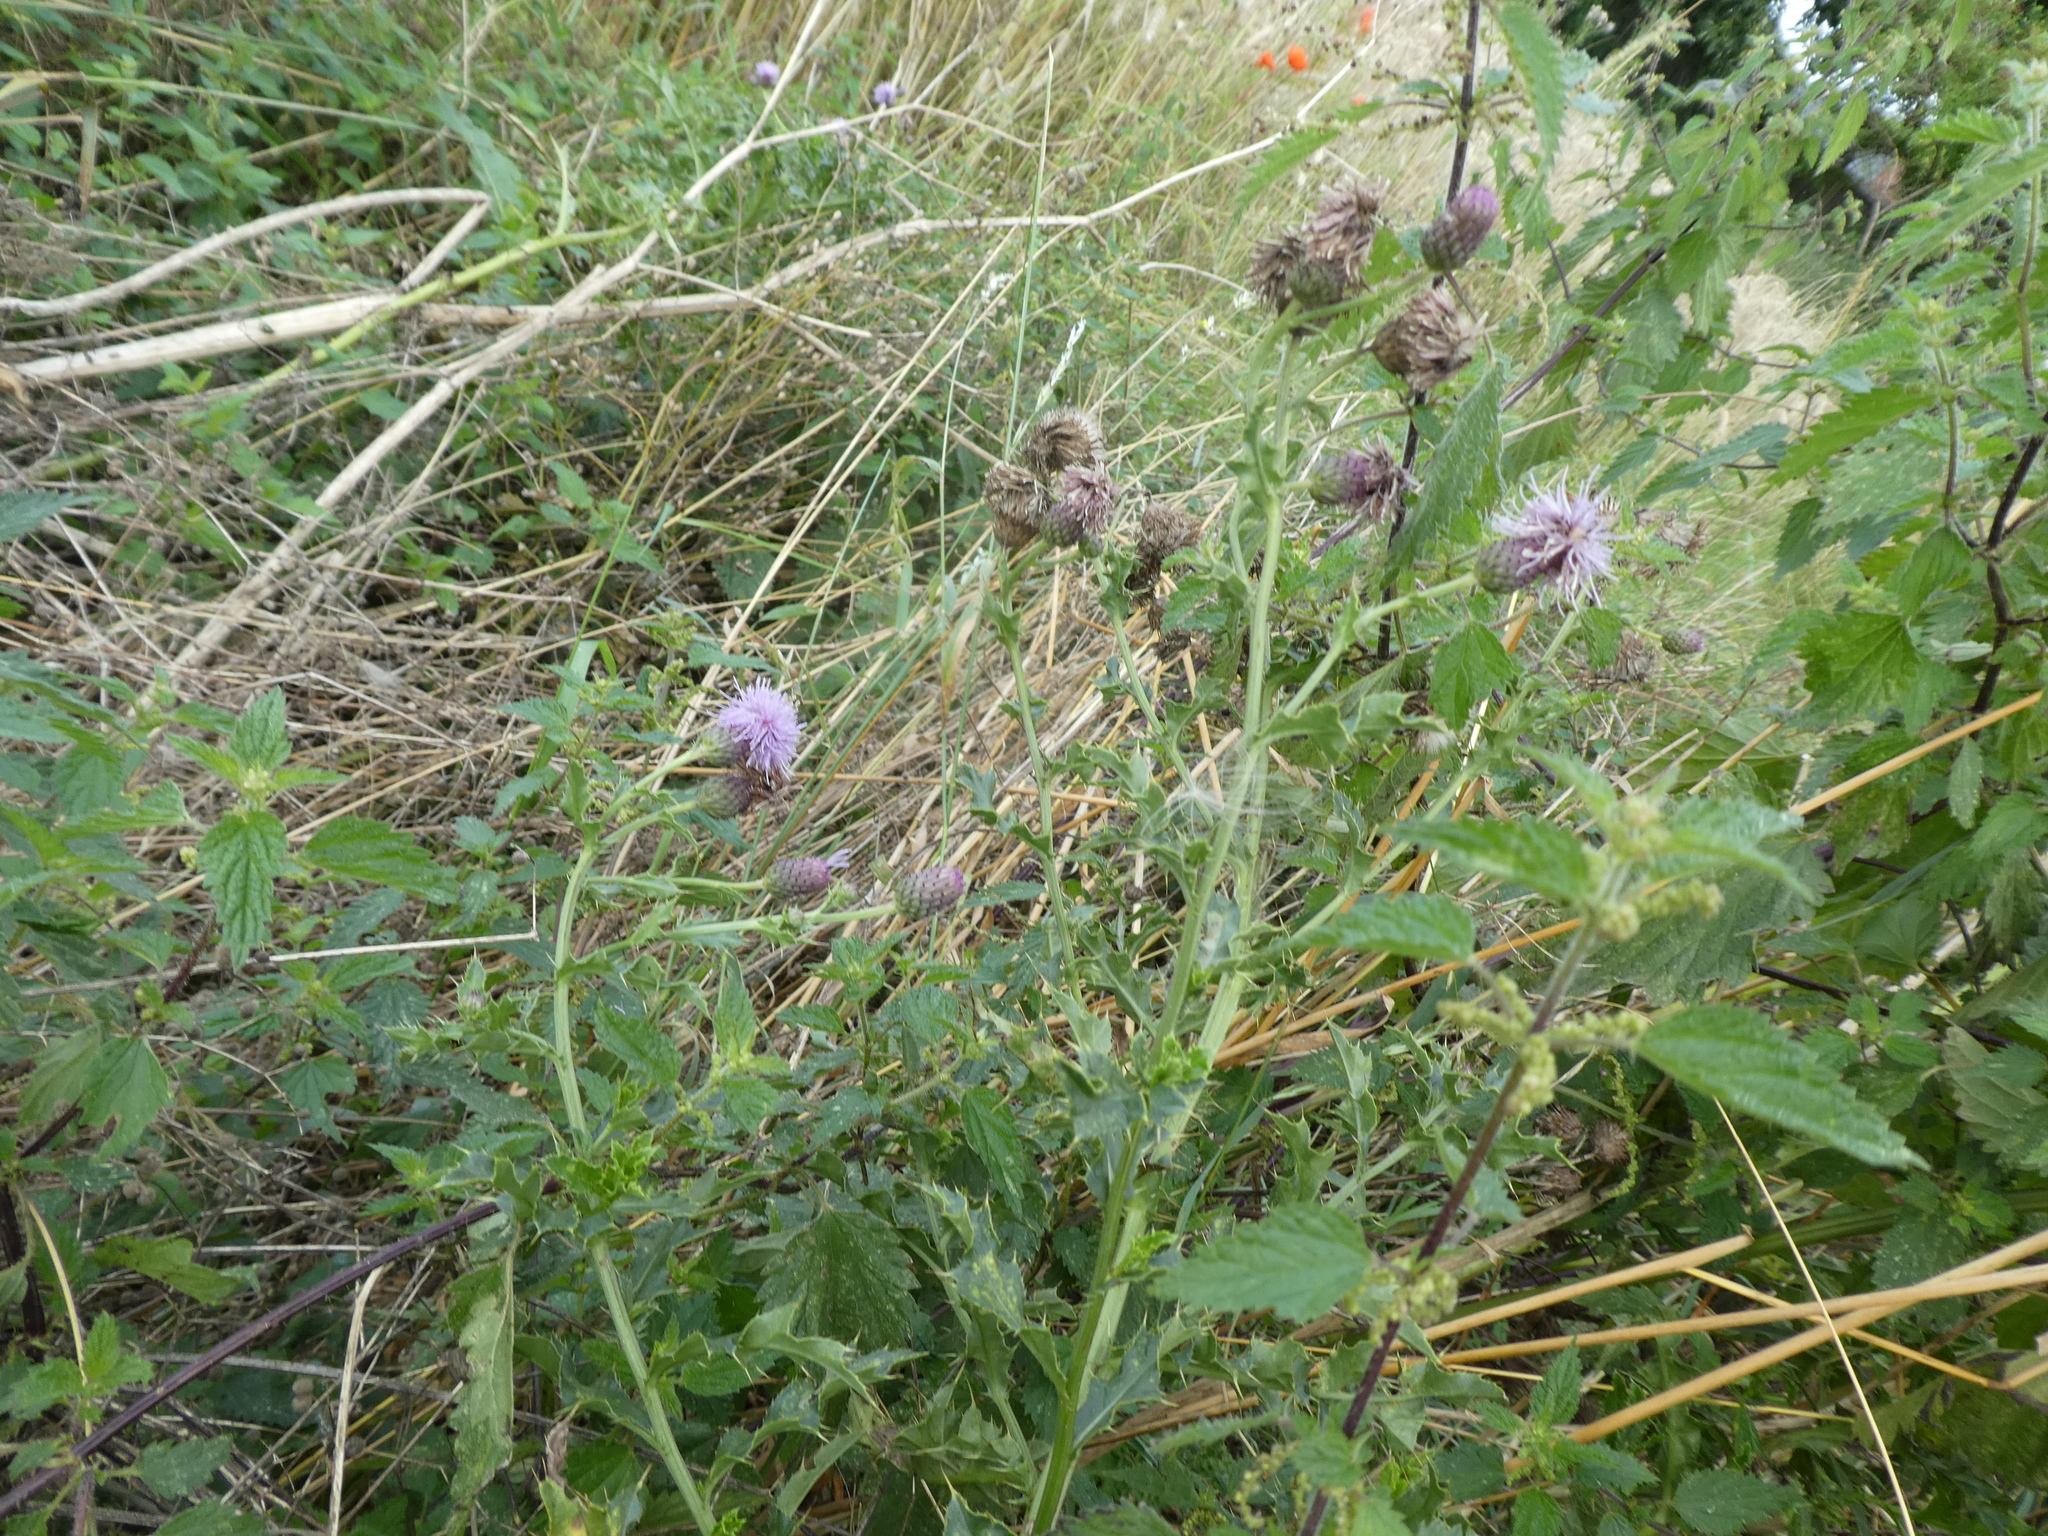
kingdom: Plantae
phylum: Tracheophyta
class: Magnoliopsida
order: Asterales
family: Asteraceae
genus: Cirsium
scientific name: Cirsium arvense
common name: Creeping thistle
